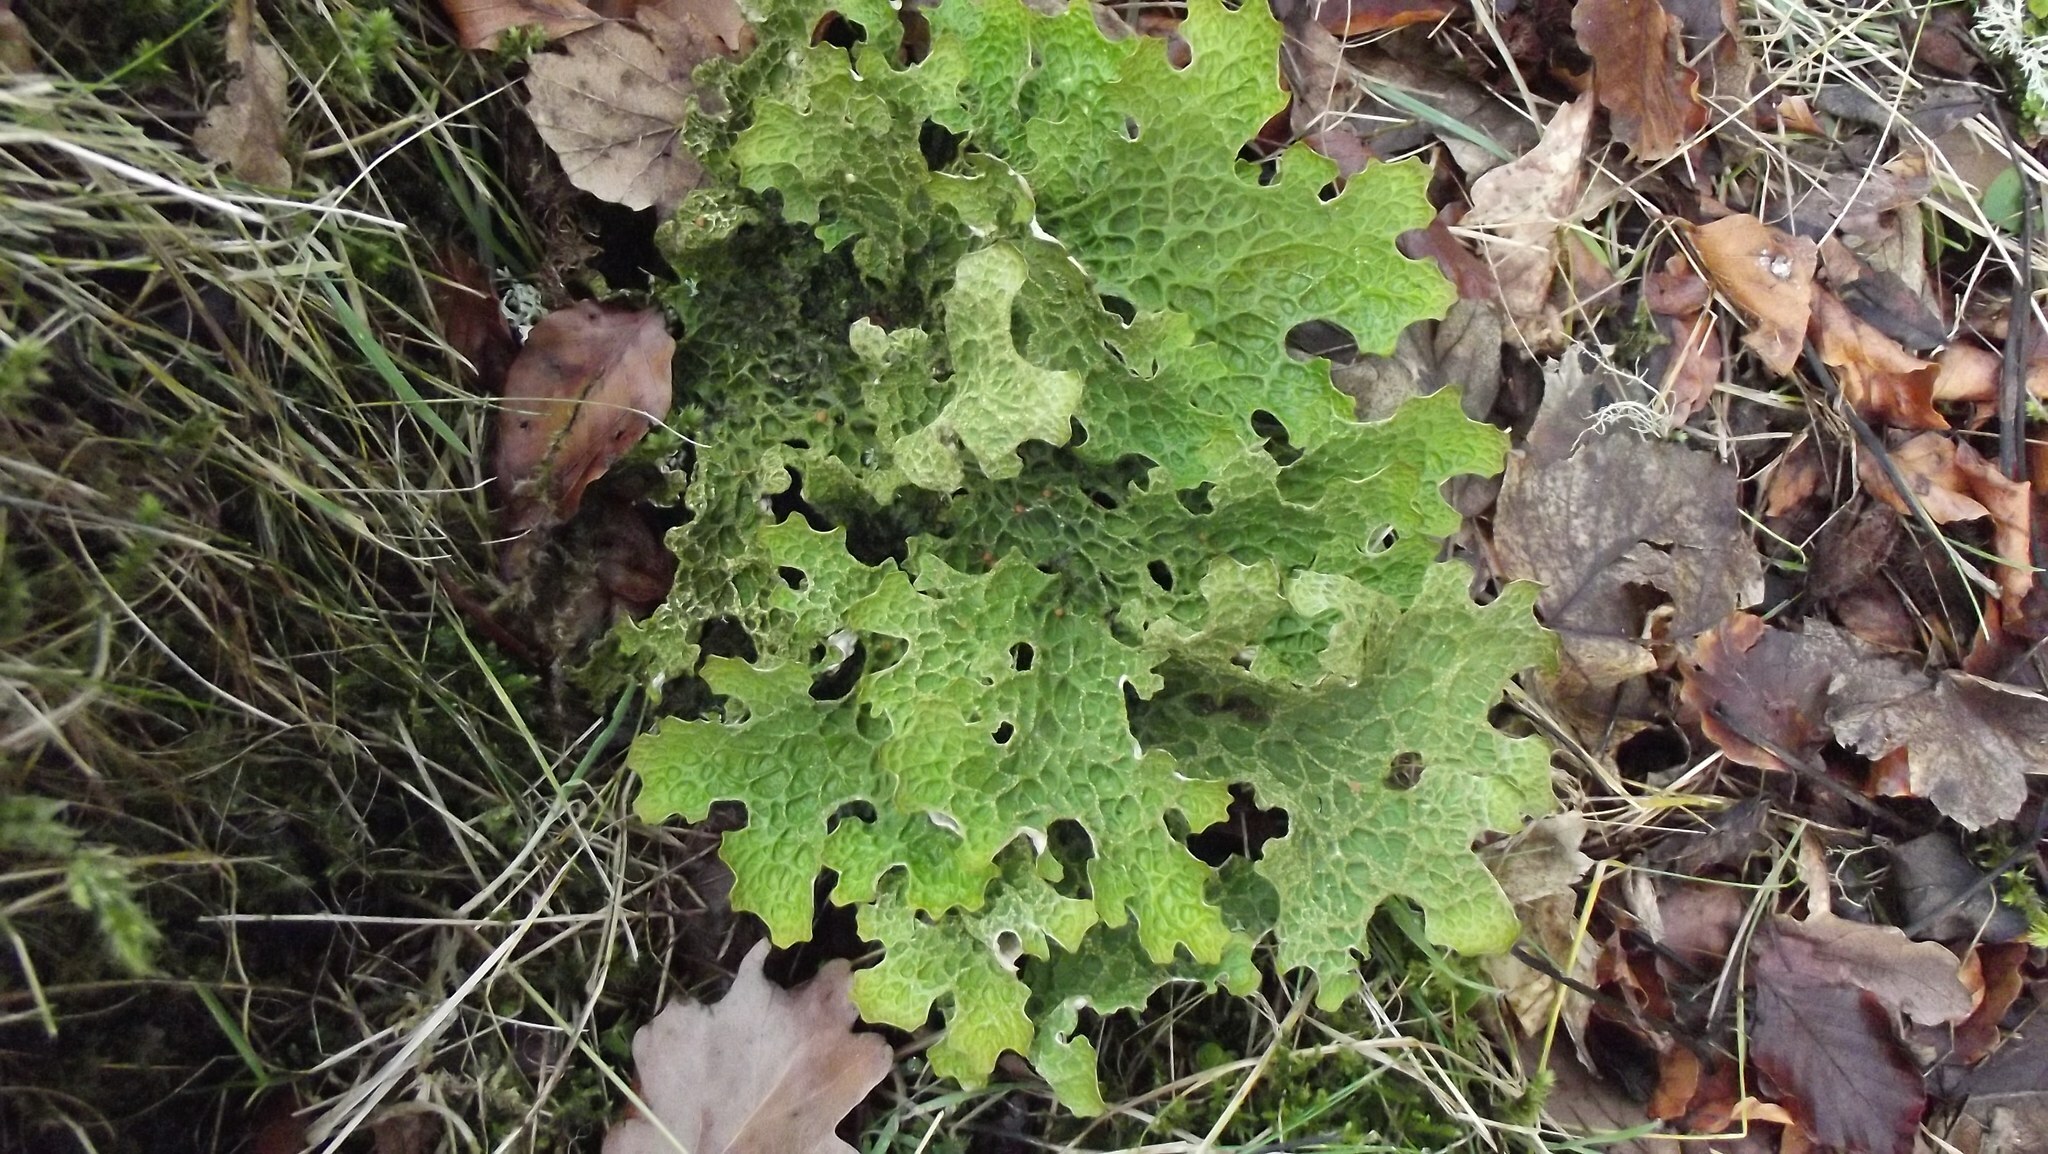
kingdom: Fungi
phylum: Ascomycota
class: Lecanoromycetes
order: Peltigerales
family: Lobariaceae
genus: Lobaria
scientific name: Lobaria pulmonaria
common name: Lungwort
